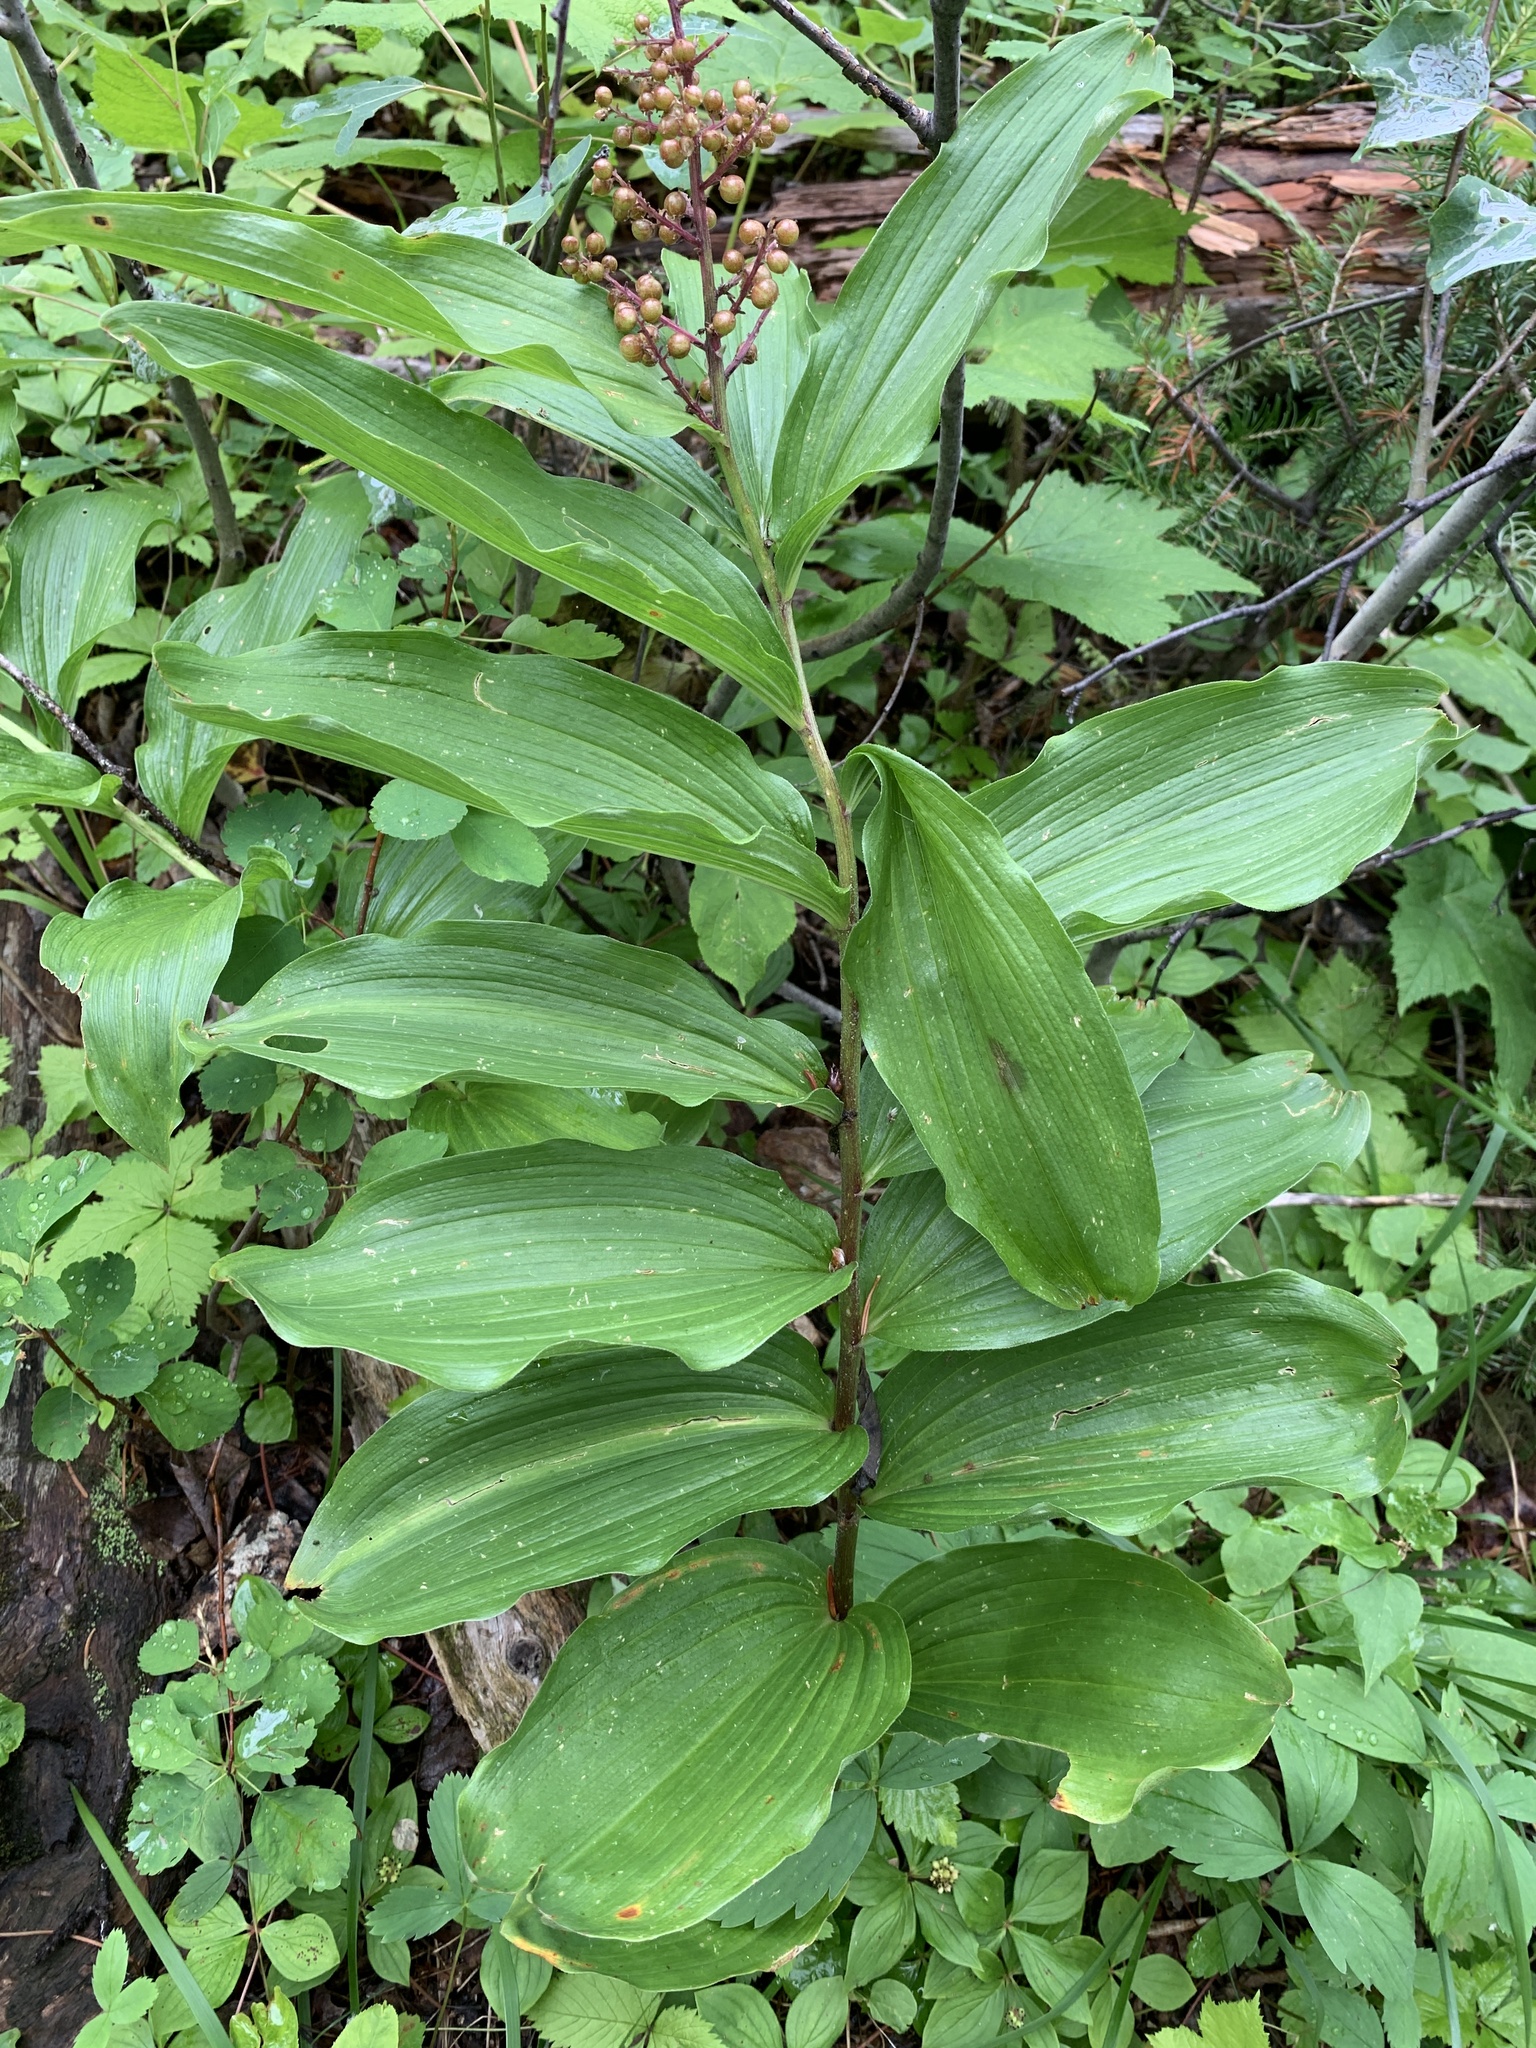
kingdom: Plantae
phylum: Tracheophyta
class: Liliopsida
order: Asparagales
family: Asparagaceae
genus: Maianthemum
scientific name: Maianthemum racemosum
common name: False spikenard
